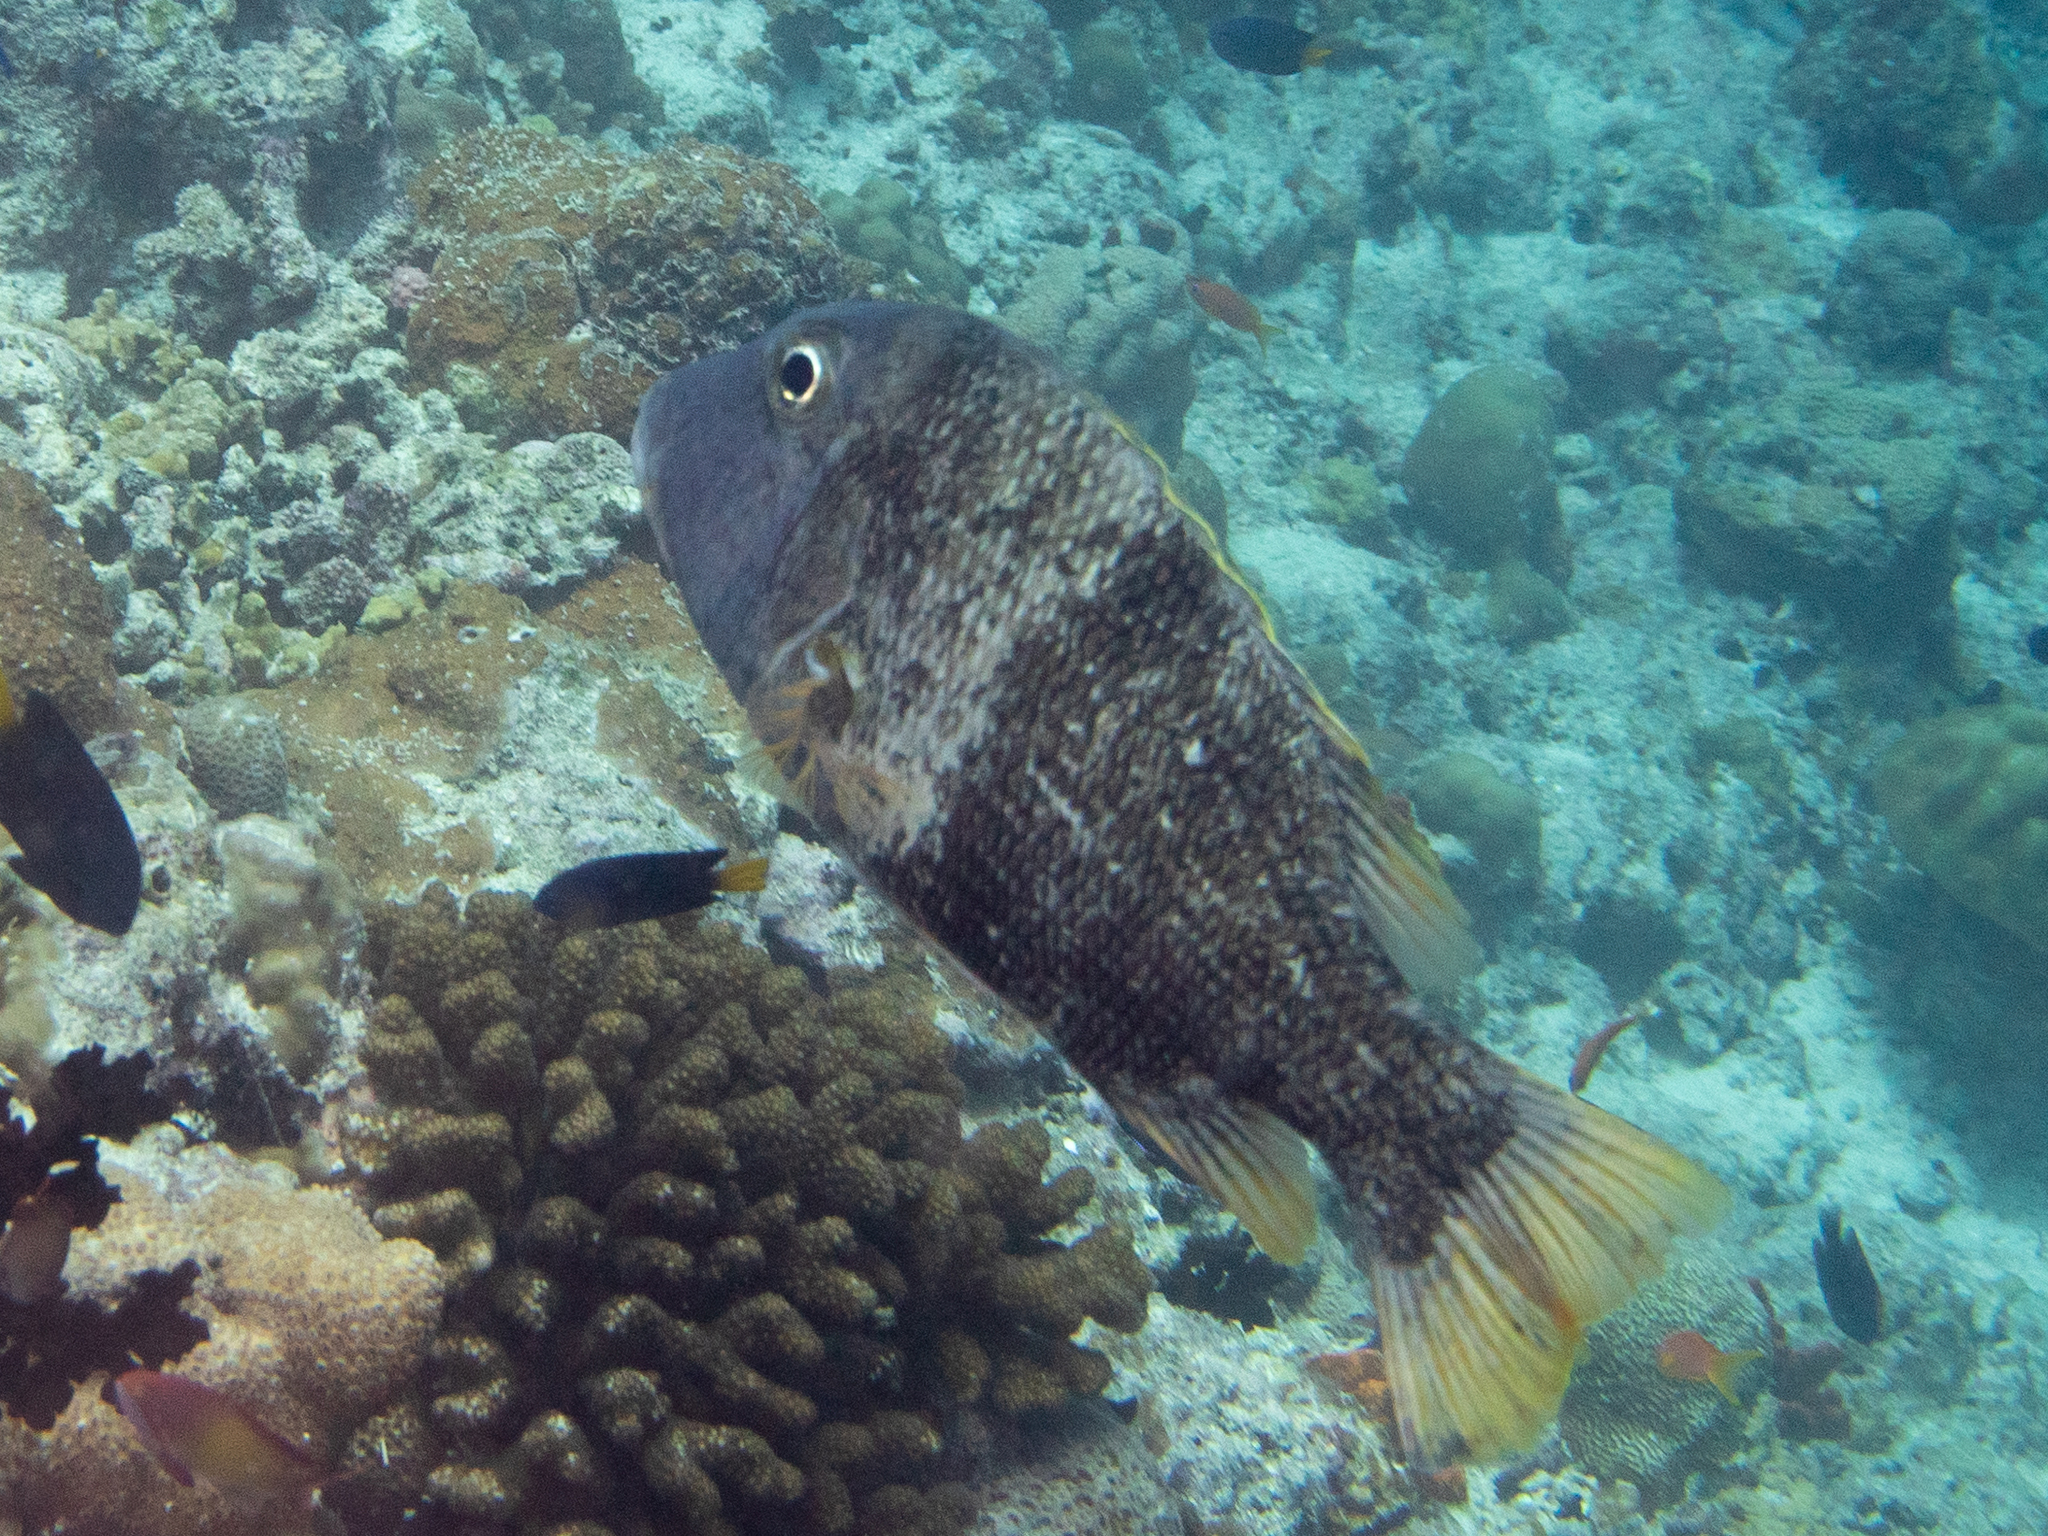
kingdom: Animalia
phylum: Chordata
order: Perciformes
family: Lethrinidae
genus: Lethrinus
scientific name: Lethrinus erythracanthus
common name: Orange-spotted emperor
